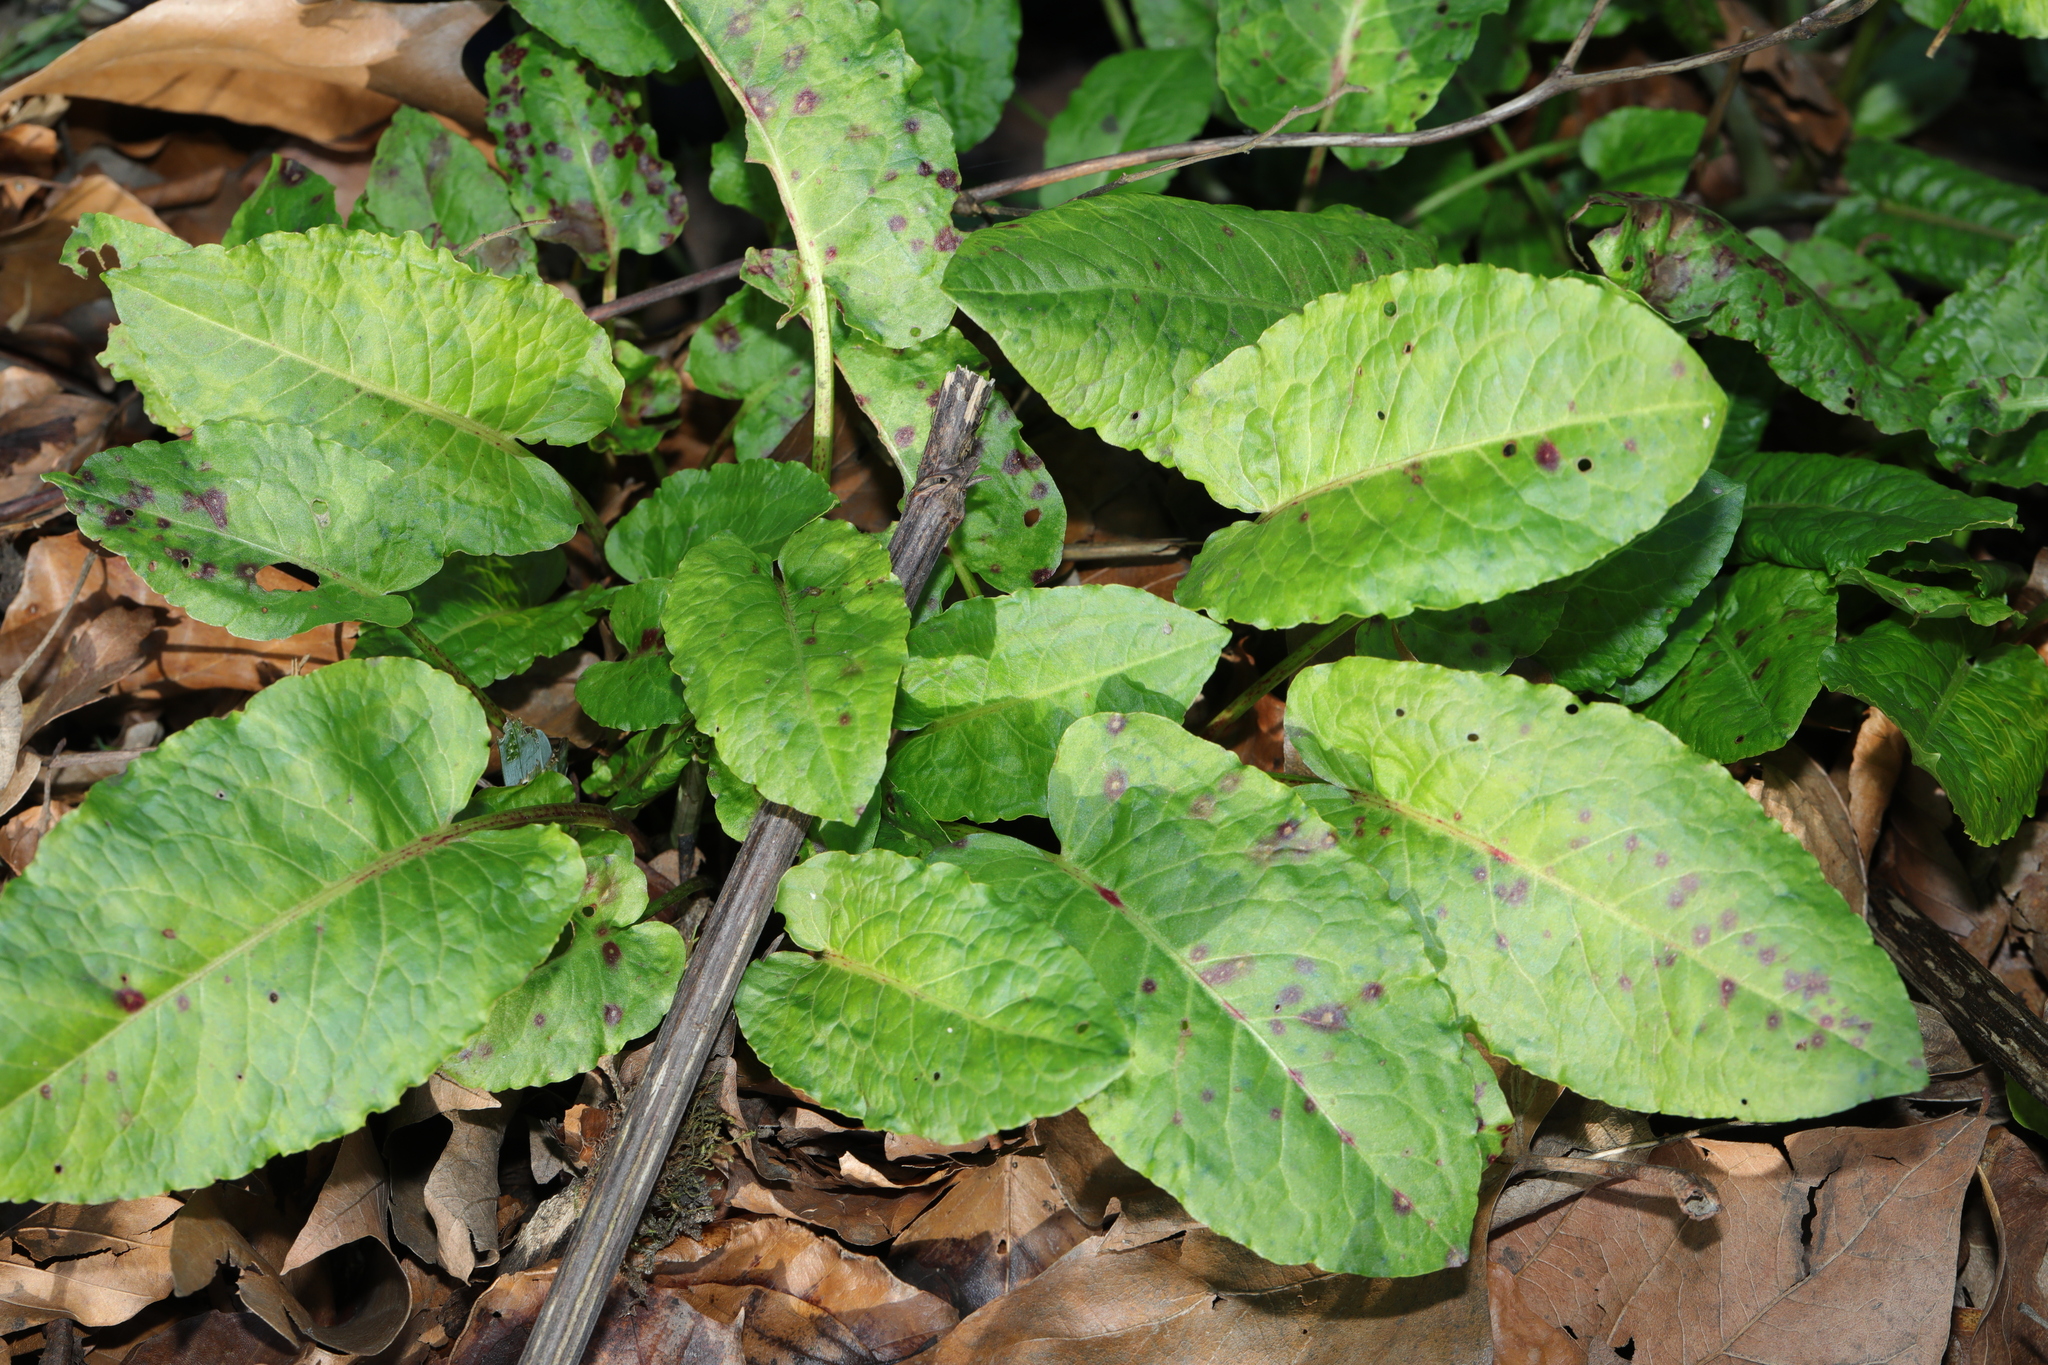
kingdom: Plantae
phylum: Tracheophyta
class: Magnoliopsida
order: Caryophyllales
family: Polygonaceae
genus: Rumex
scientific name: Rumex obtusifolius
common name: Bitter dock
